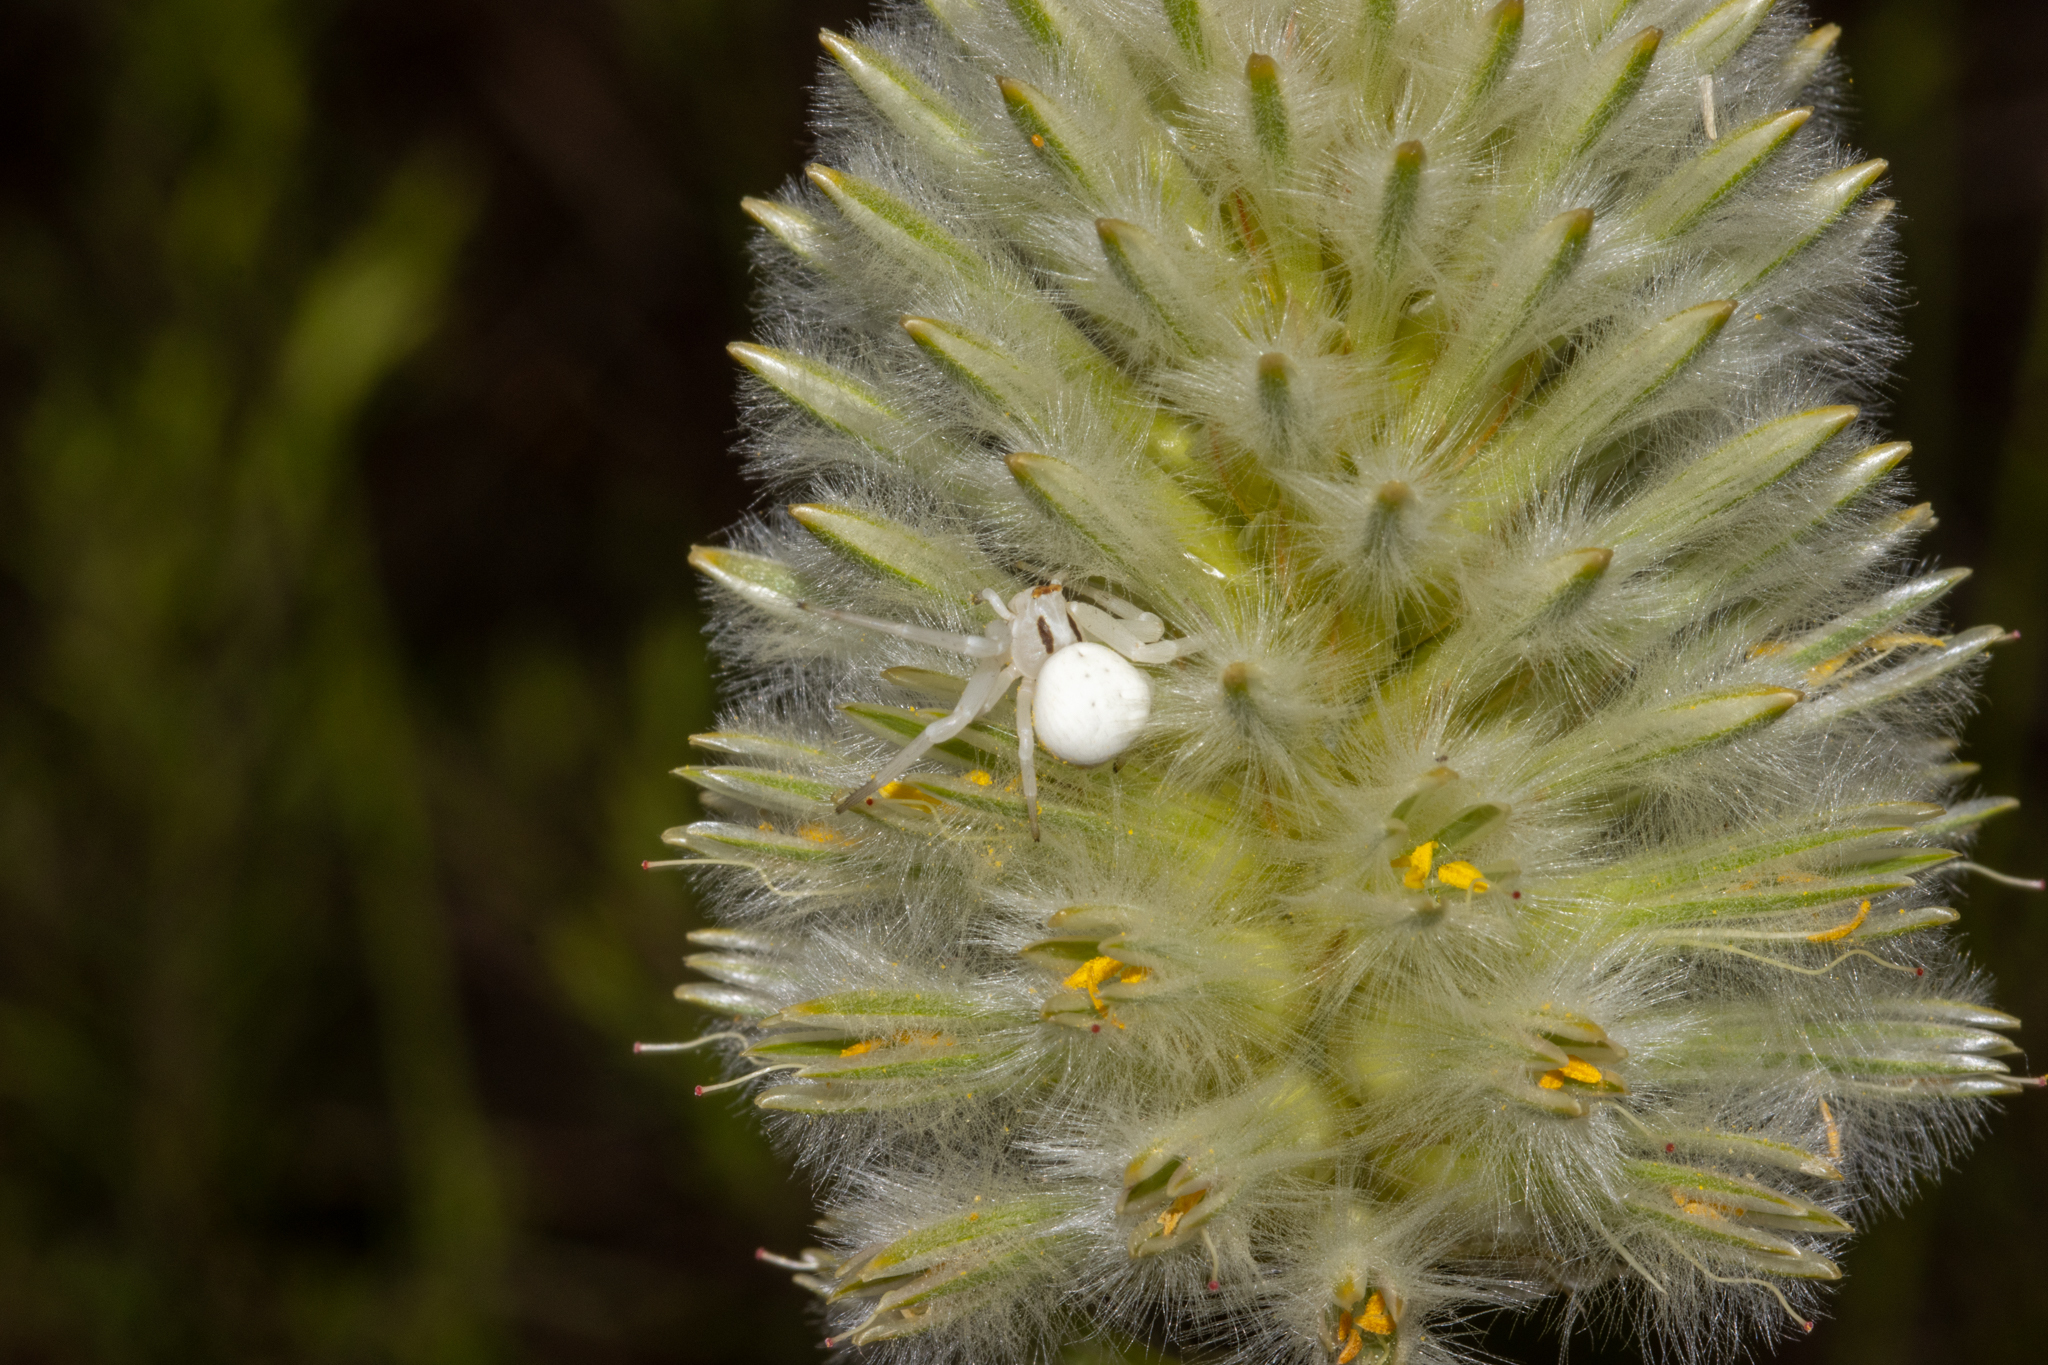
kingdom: Animalia
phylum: Arthropoda
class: Arachnida
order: Araneae
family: Thomisidae
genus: Zygometis
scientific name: Zygometis xanthogaster
